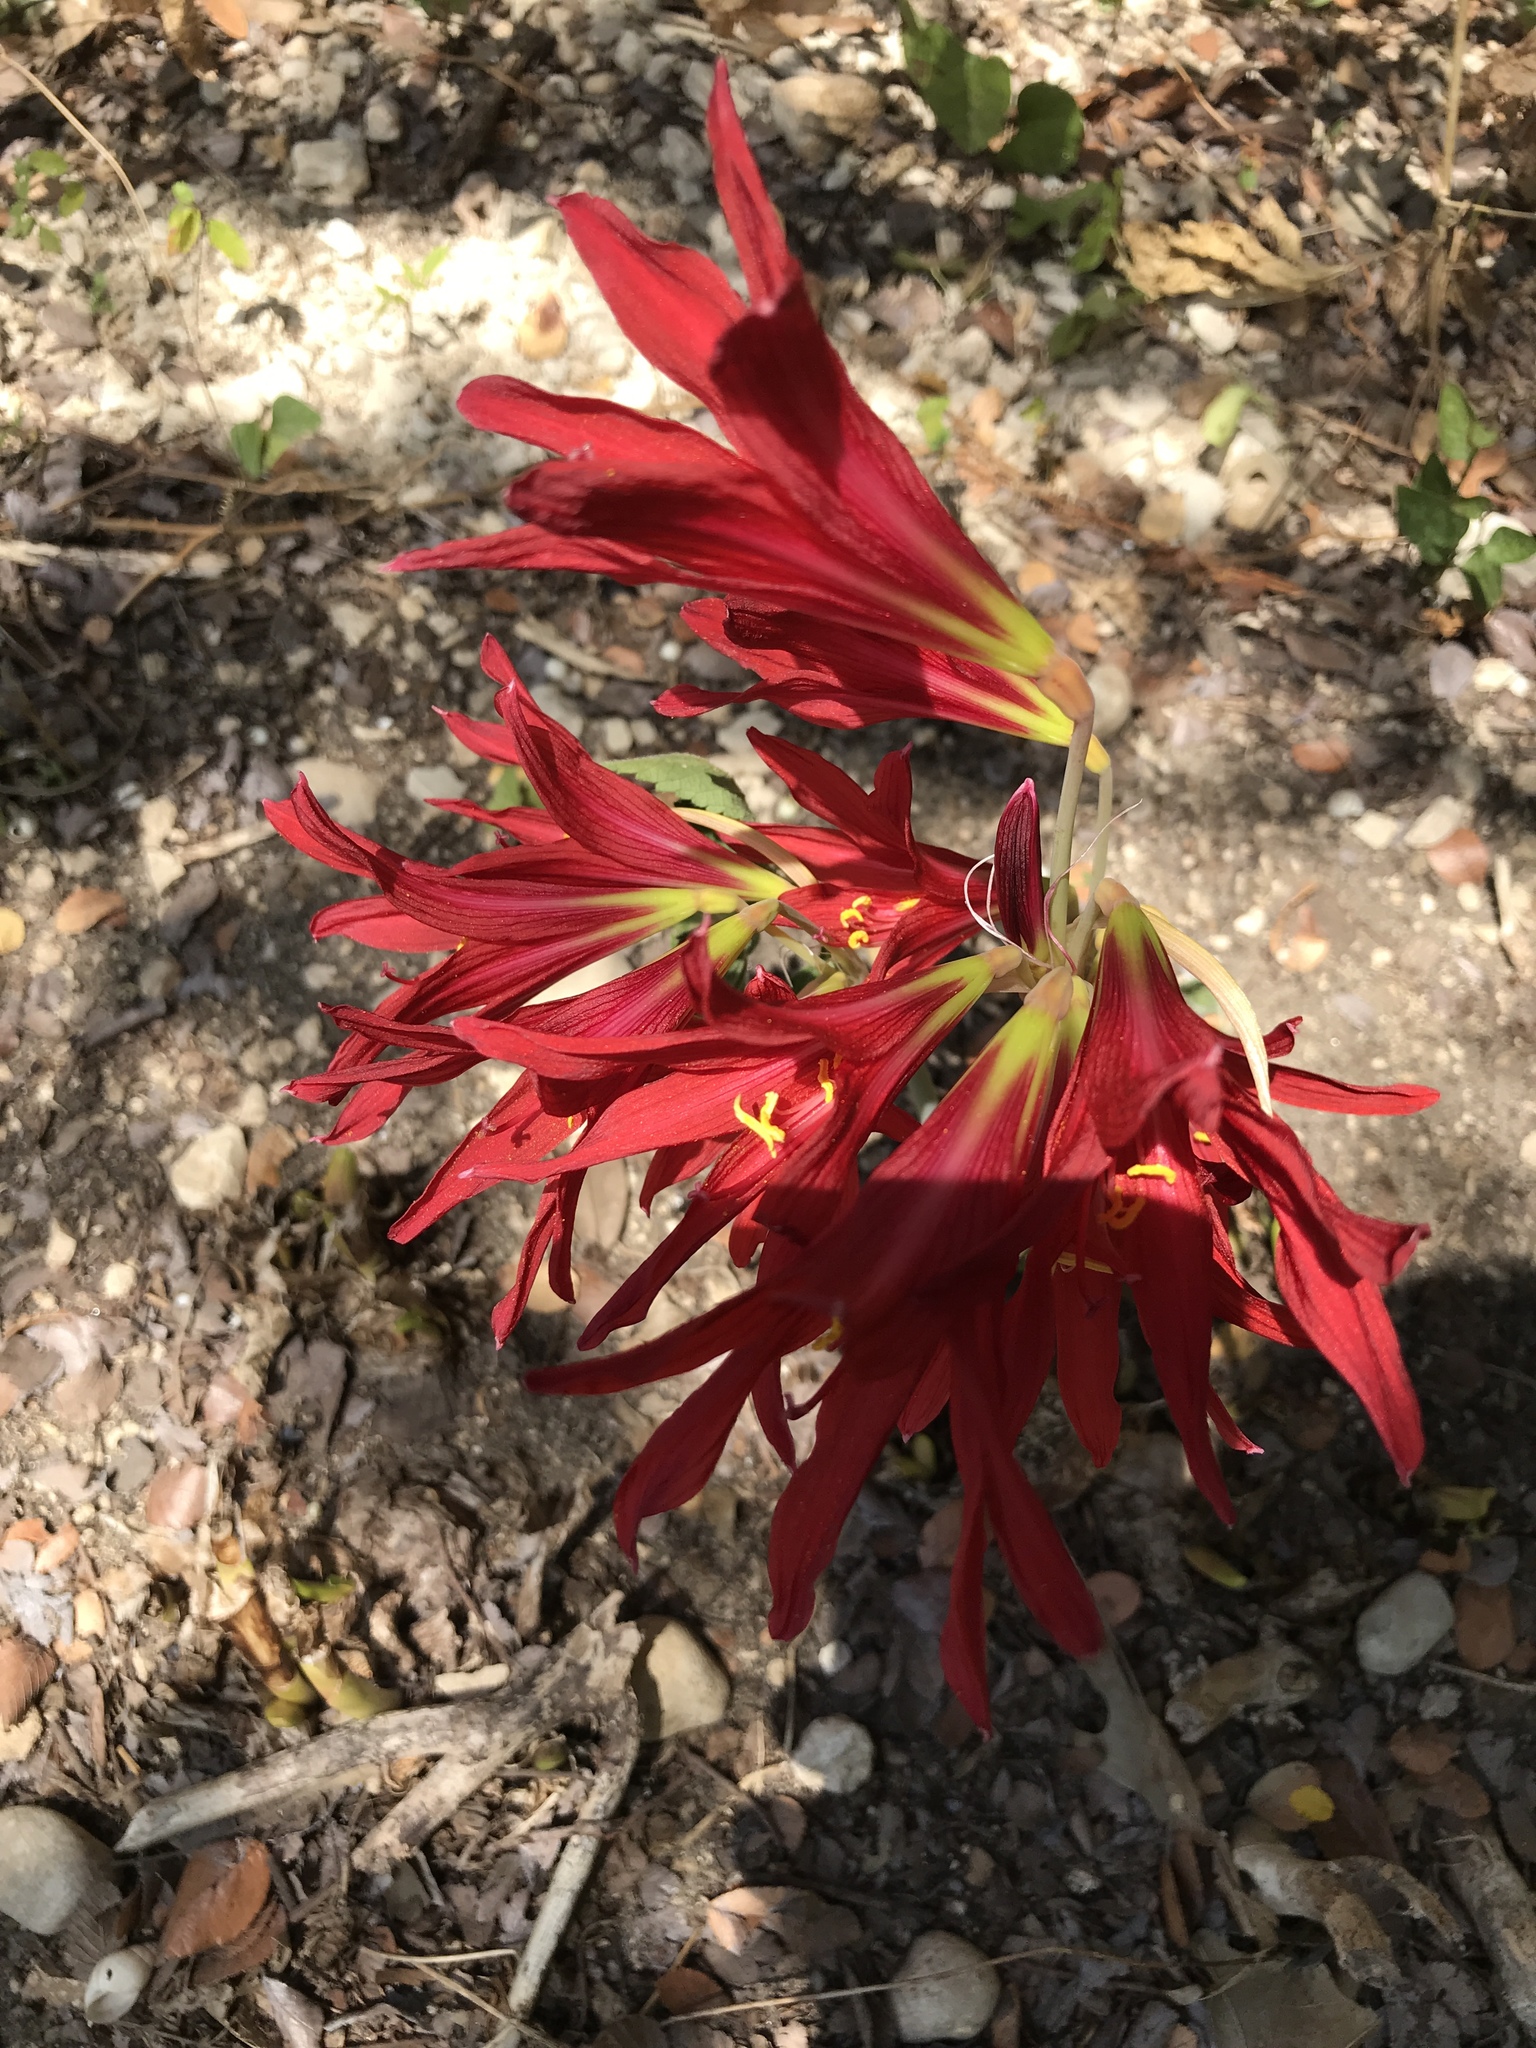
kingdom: Plantae
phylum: Tracheophyta
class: Liliopsida
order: Asparagales
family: Amaryllidaceae
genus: Zephyranthes
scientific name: Zephyranthes bifida
